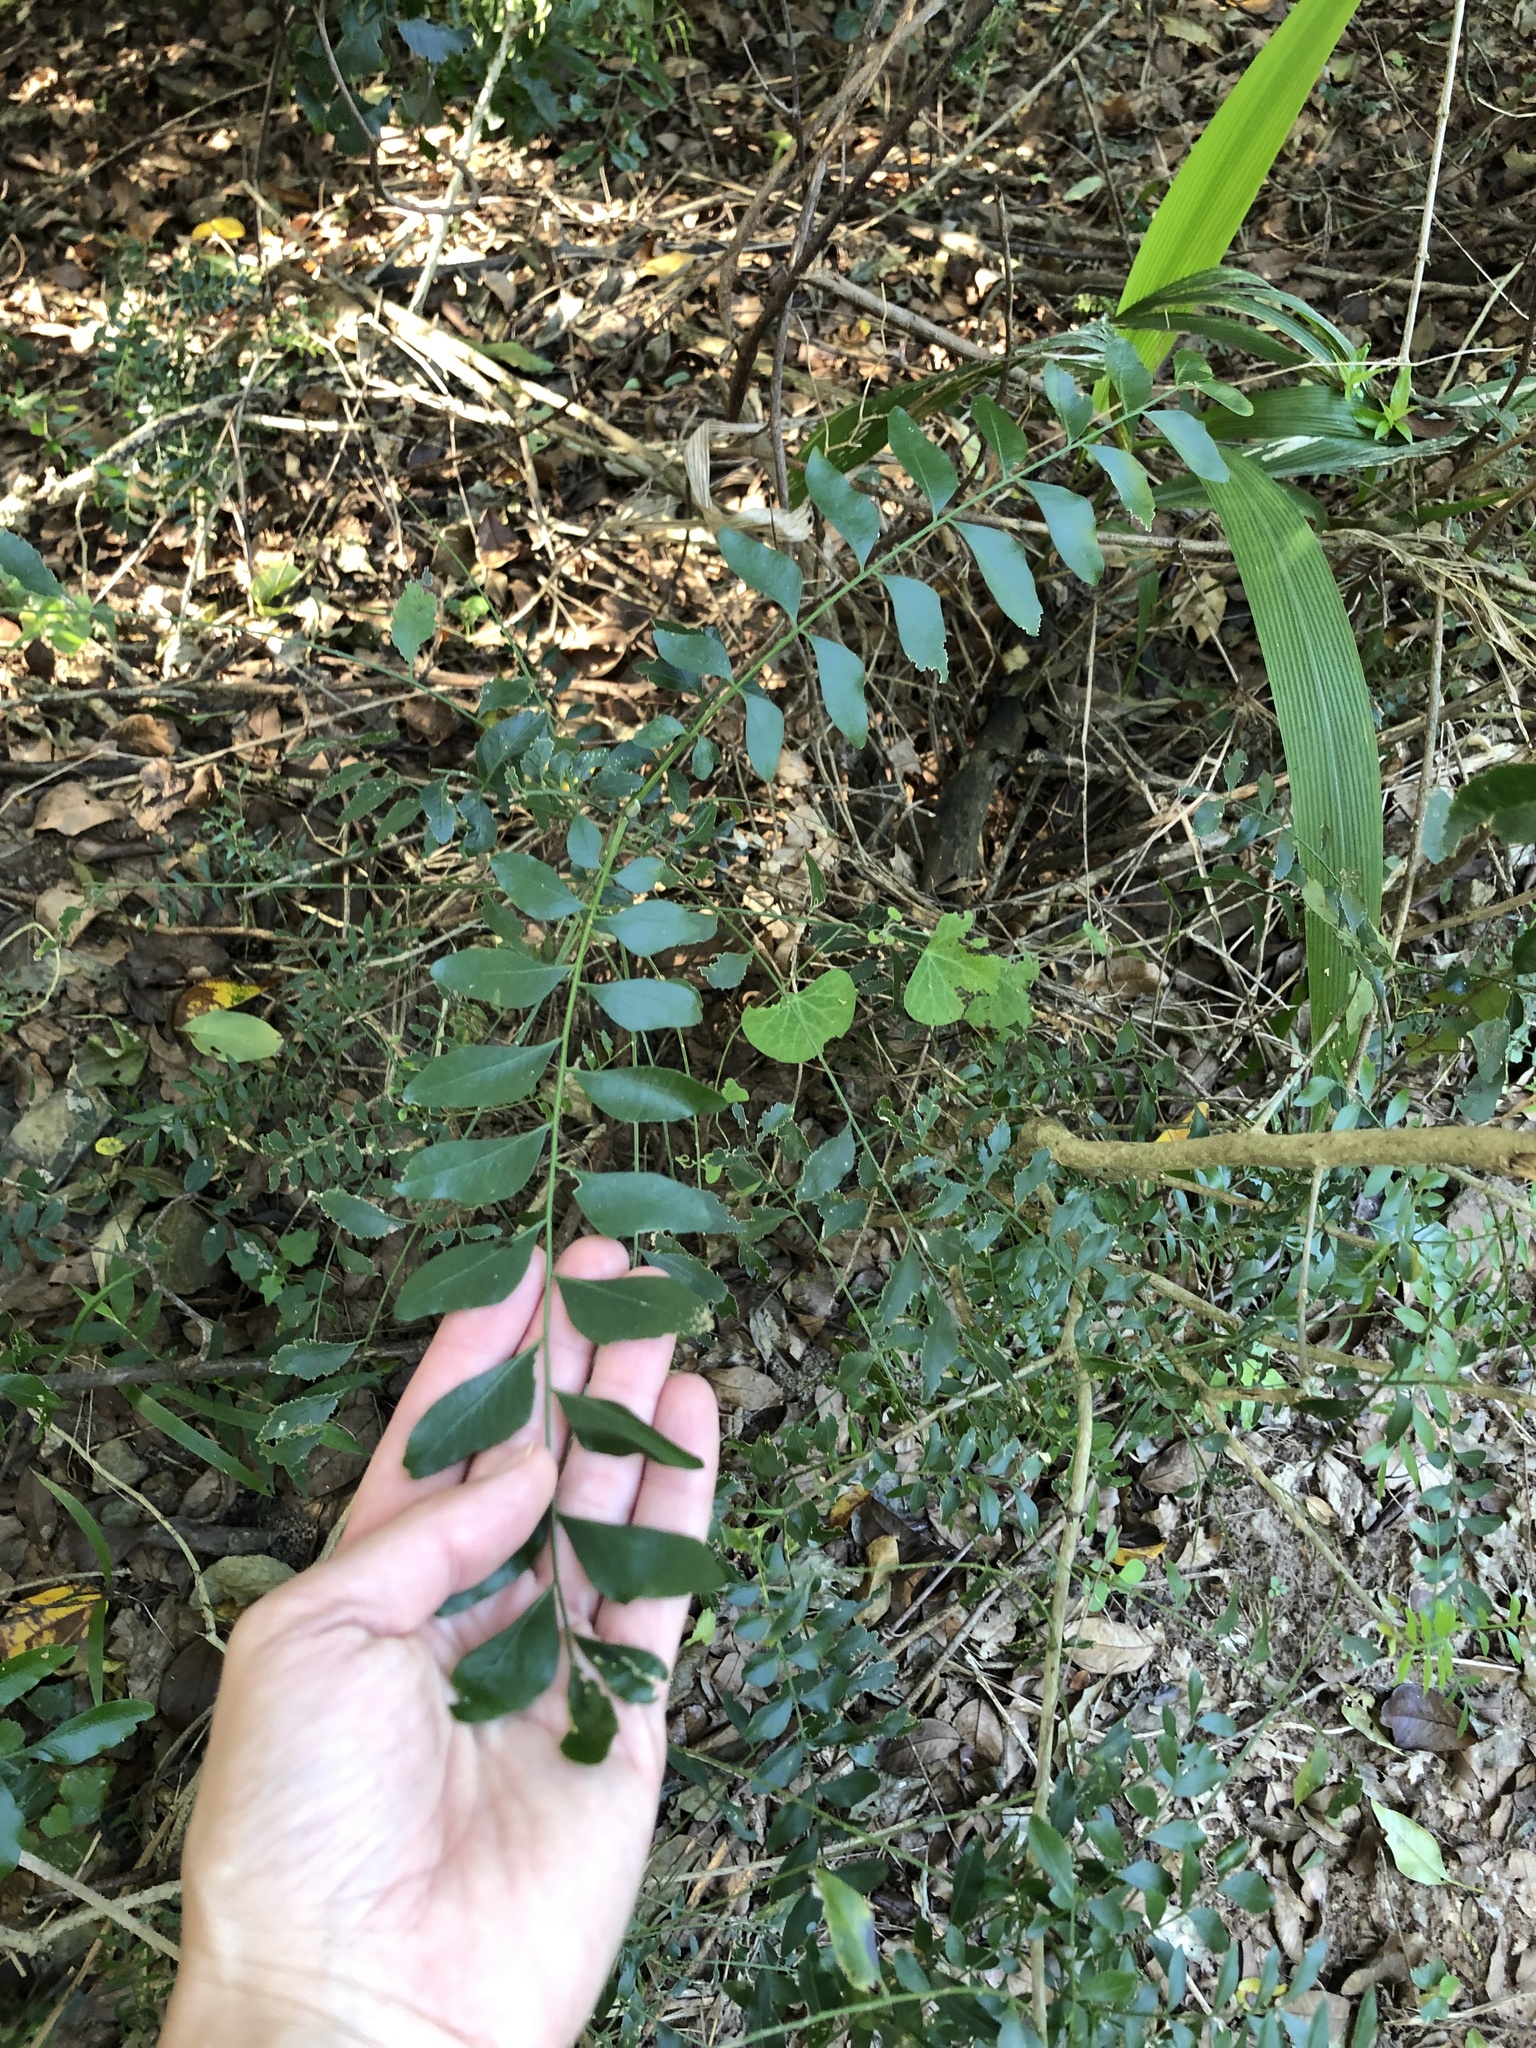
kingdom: Plantae
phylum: Tracheophyta
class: Magnoliopsida
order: Sapindales
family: Rutaceae
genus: Clausena
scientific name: Clausena anisata
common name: Horsewood
